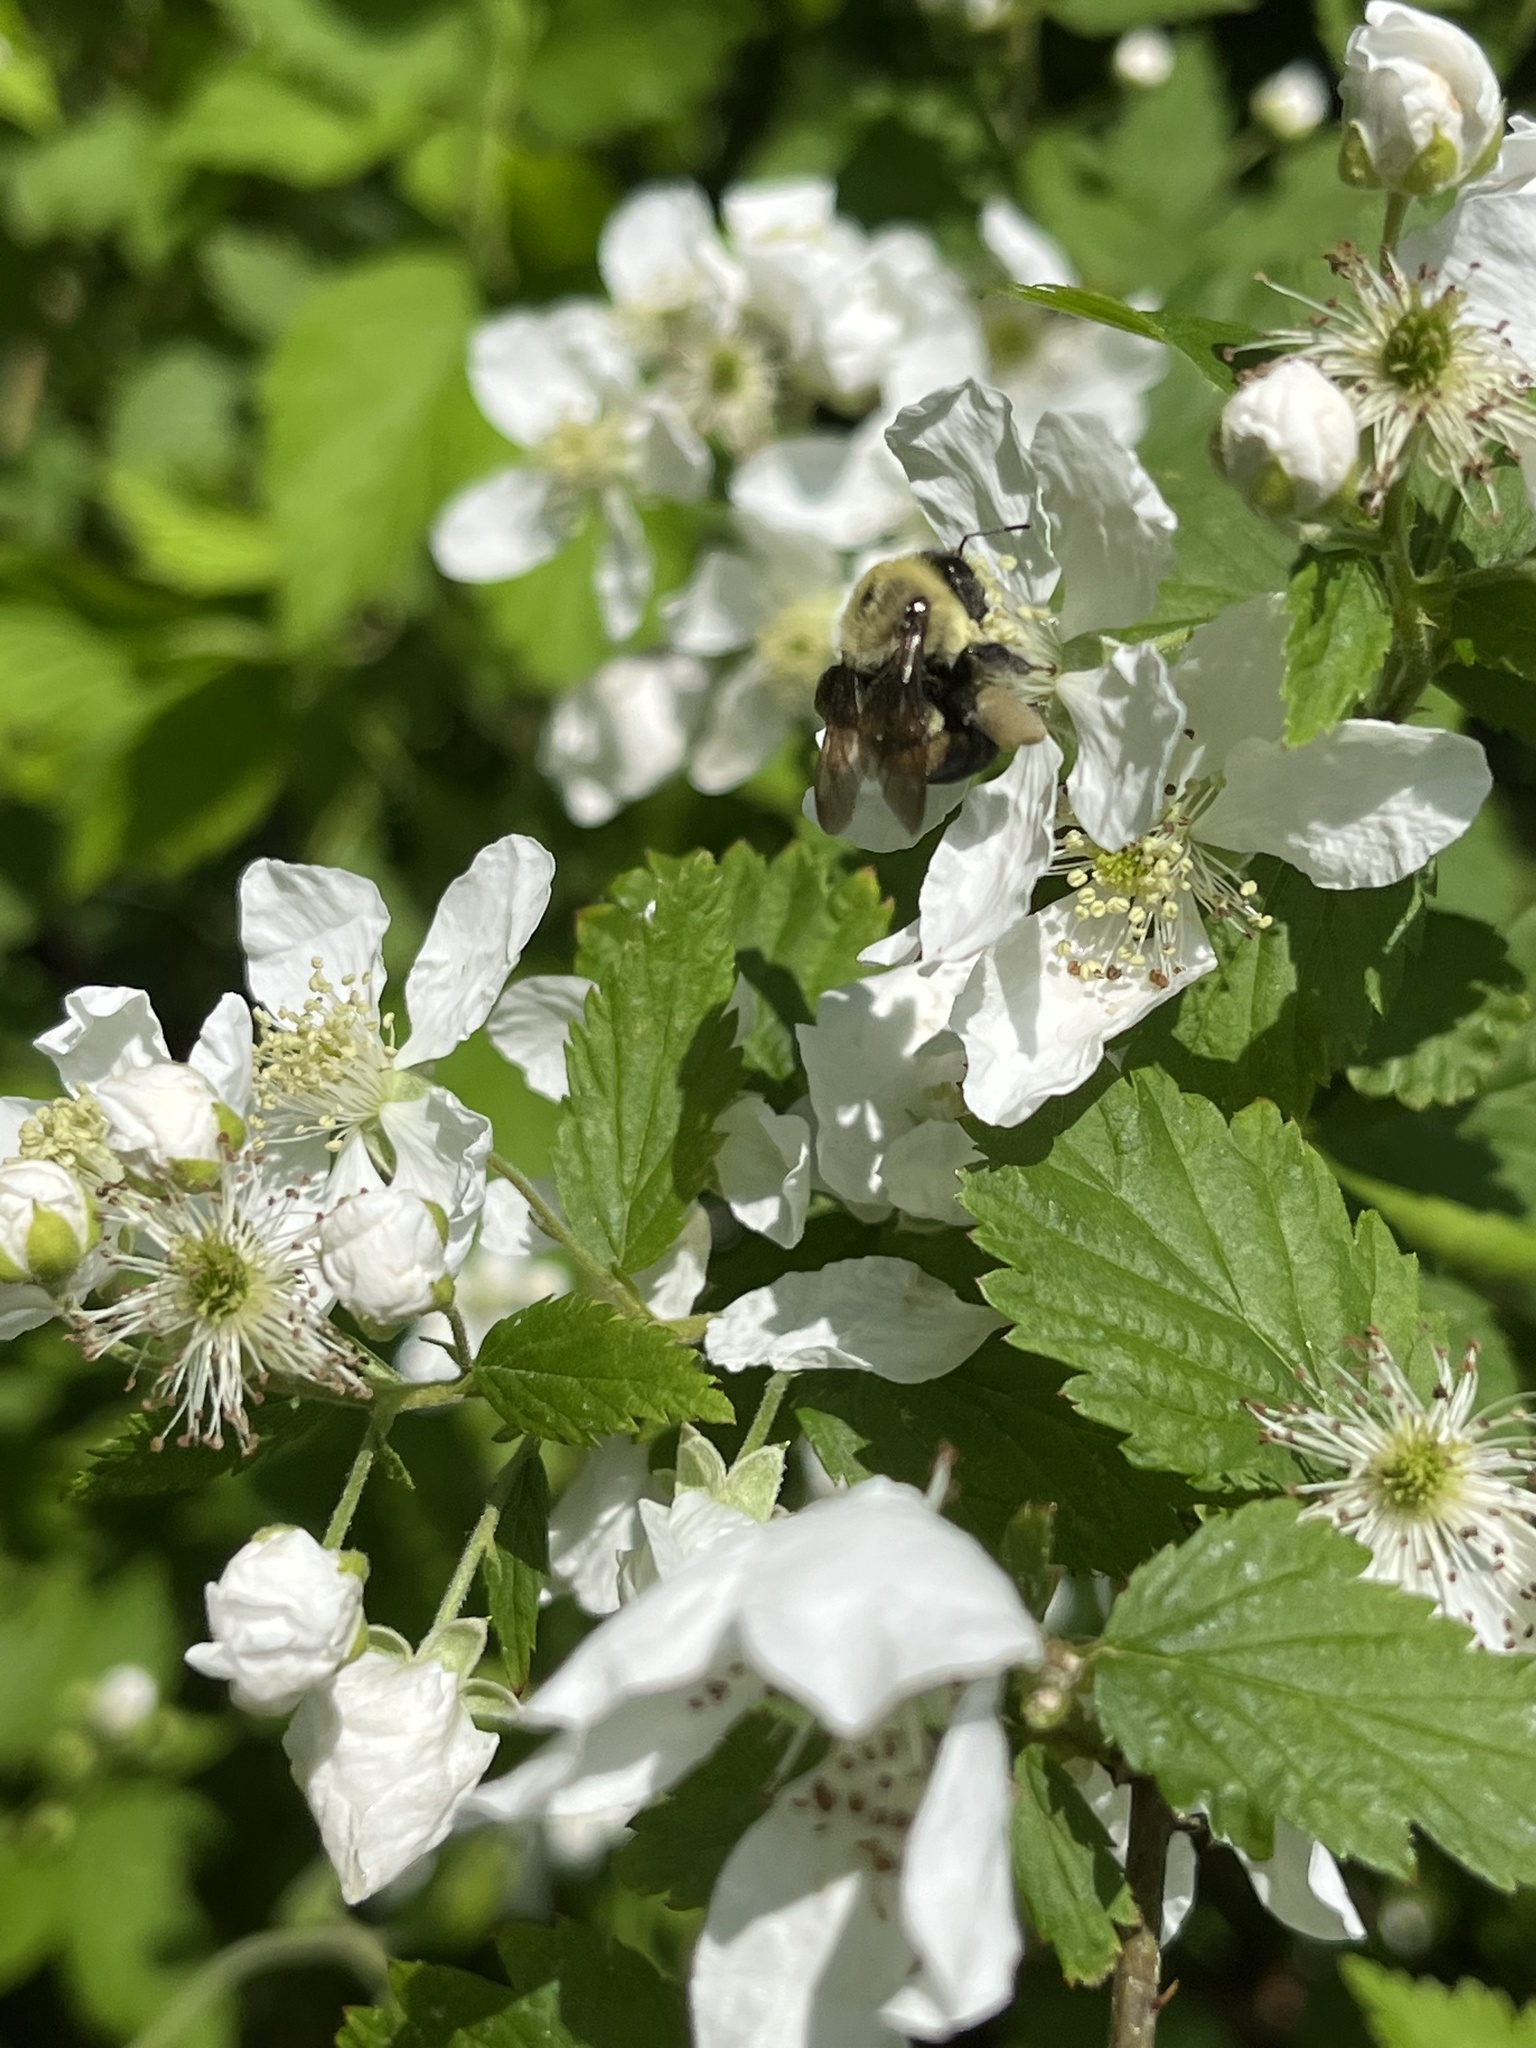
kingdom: Animalia
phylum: Arthropoda
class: Insecta
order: Hymenoptera
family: Apidae
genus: Bombus
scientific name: Bombus griseocollis
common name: Brown-belted bumble bee
